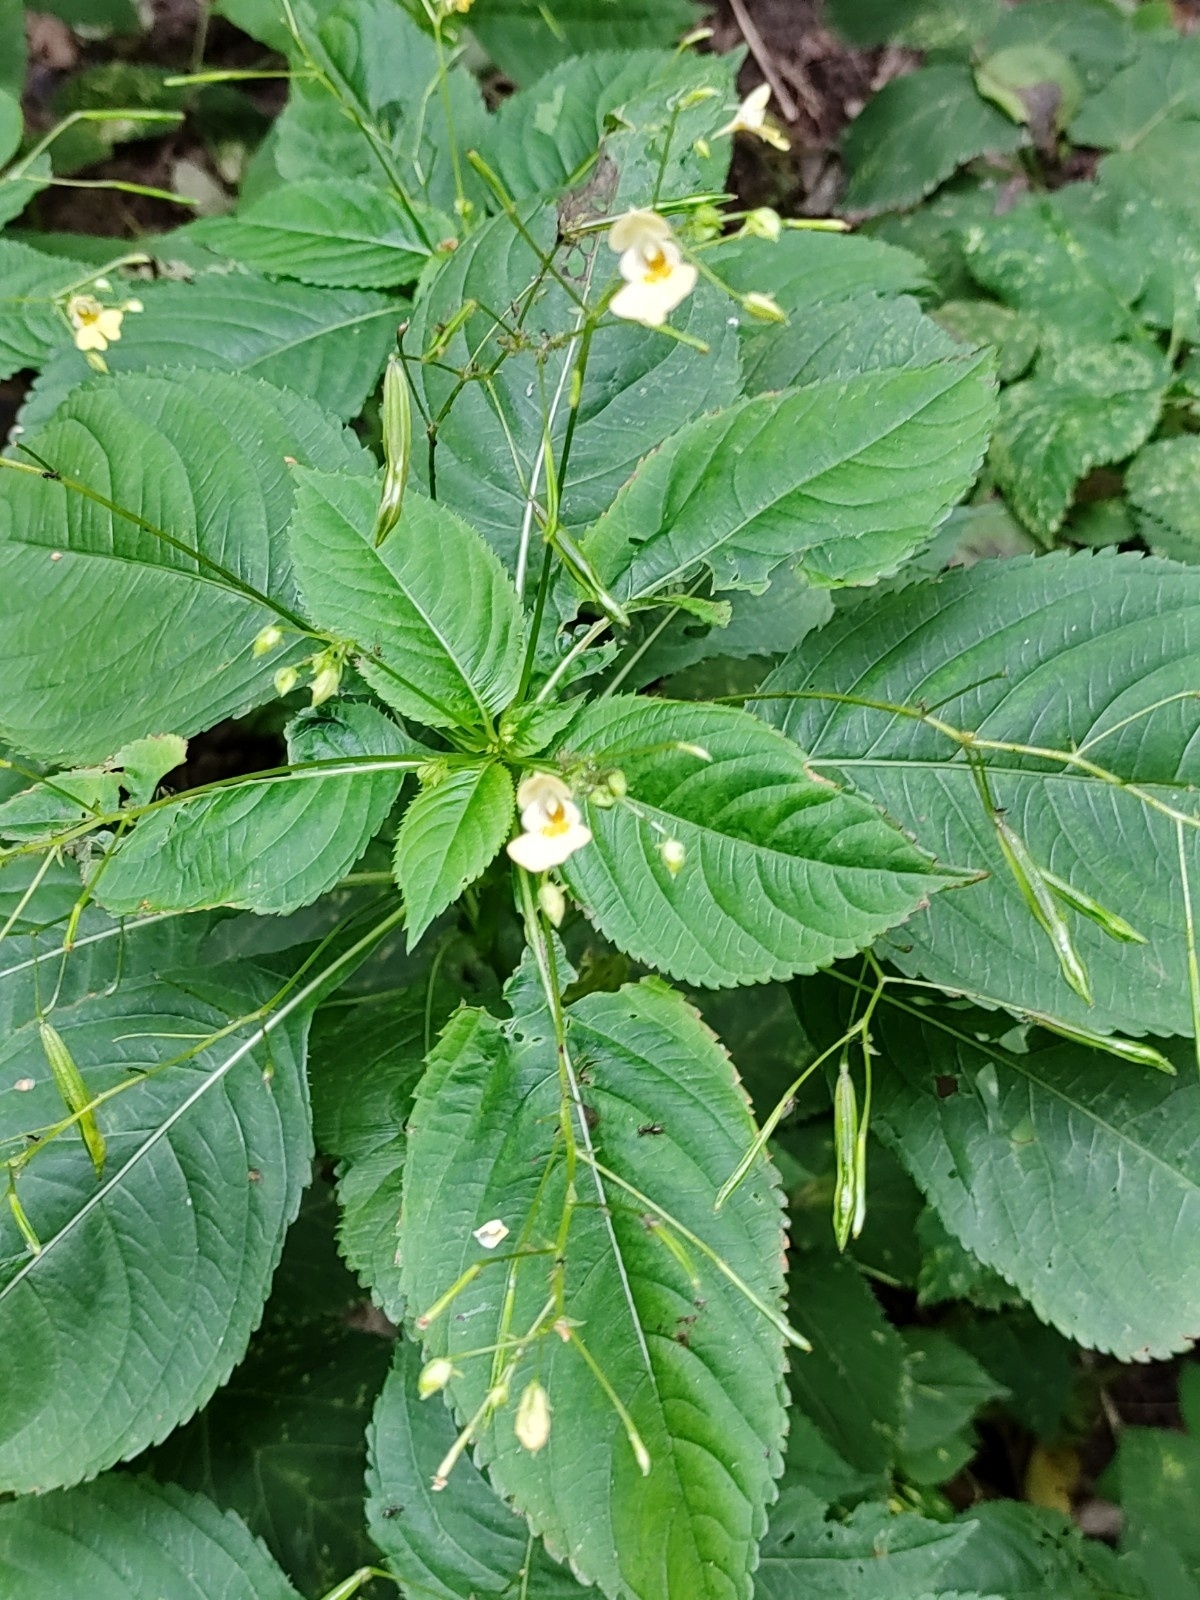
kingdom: Plantae
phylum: Tracheophyta
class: Magnoliopsida
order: Ericales
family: Balsaminaceae
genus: Impatiens
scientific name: Impatiens parviflora
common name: Small balsam
